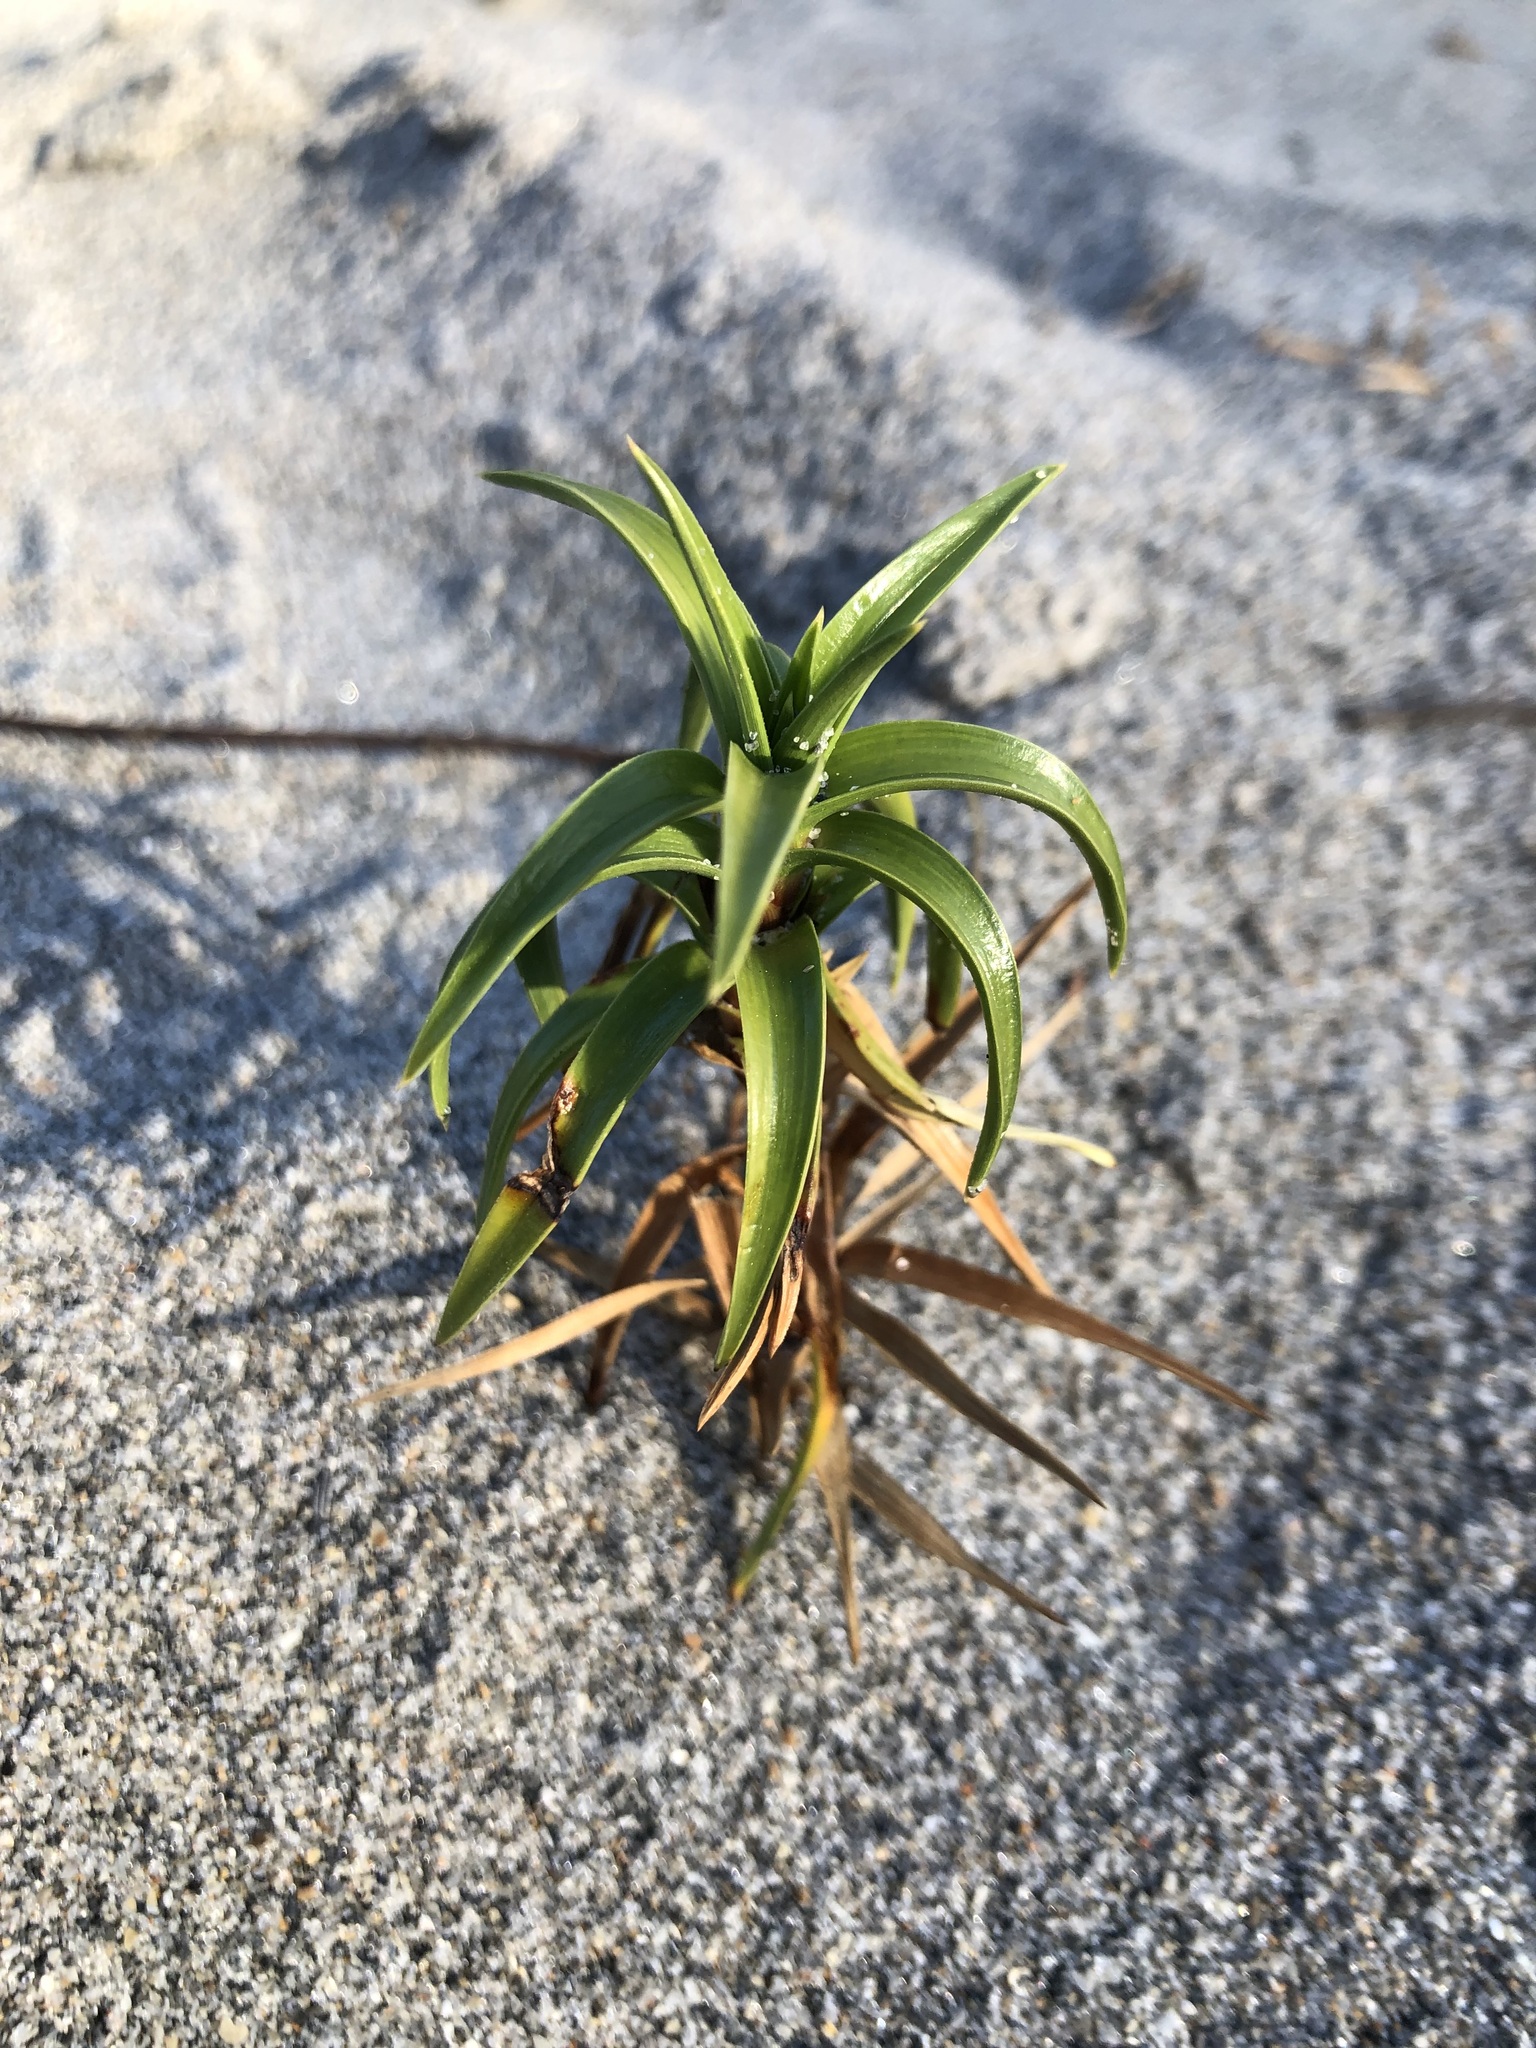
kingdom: Plantae
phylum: Tracheophyta
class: Liliopsida
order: Poales
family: Cyperaceae
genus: Cyperus
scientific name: Cyperus pedunculatus
